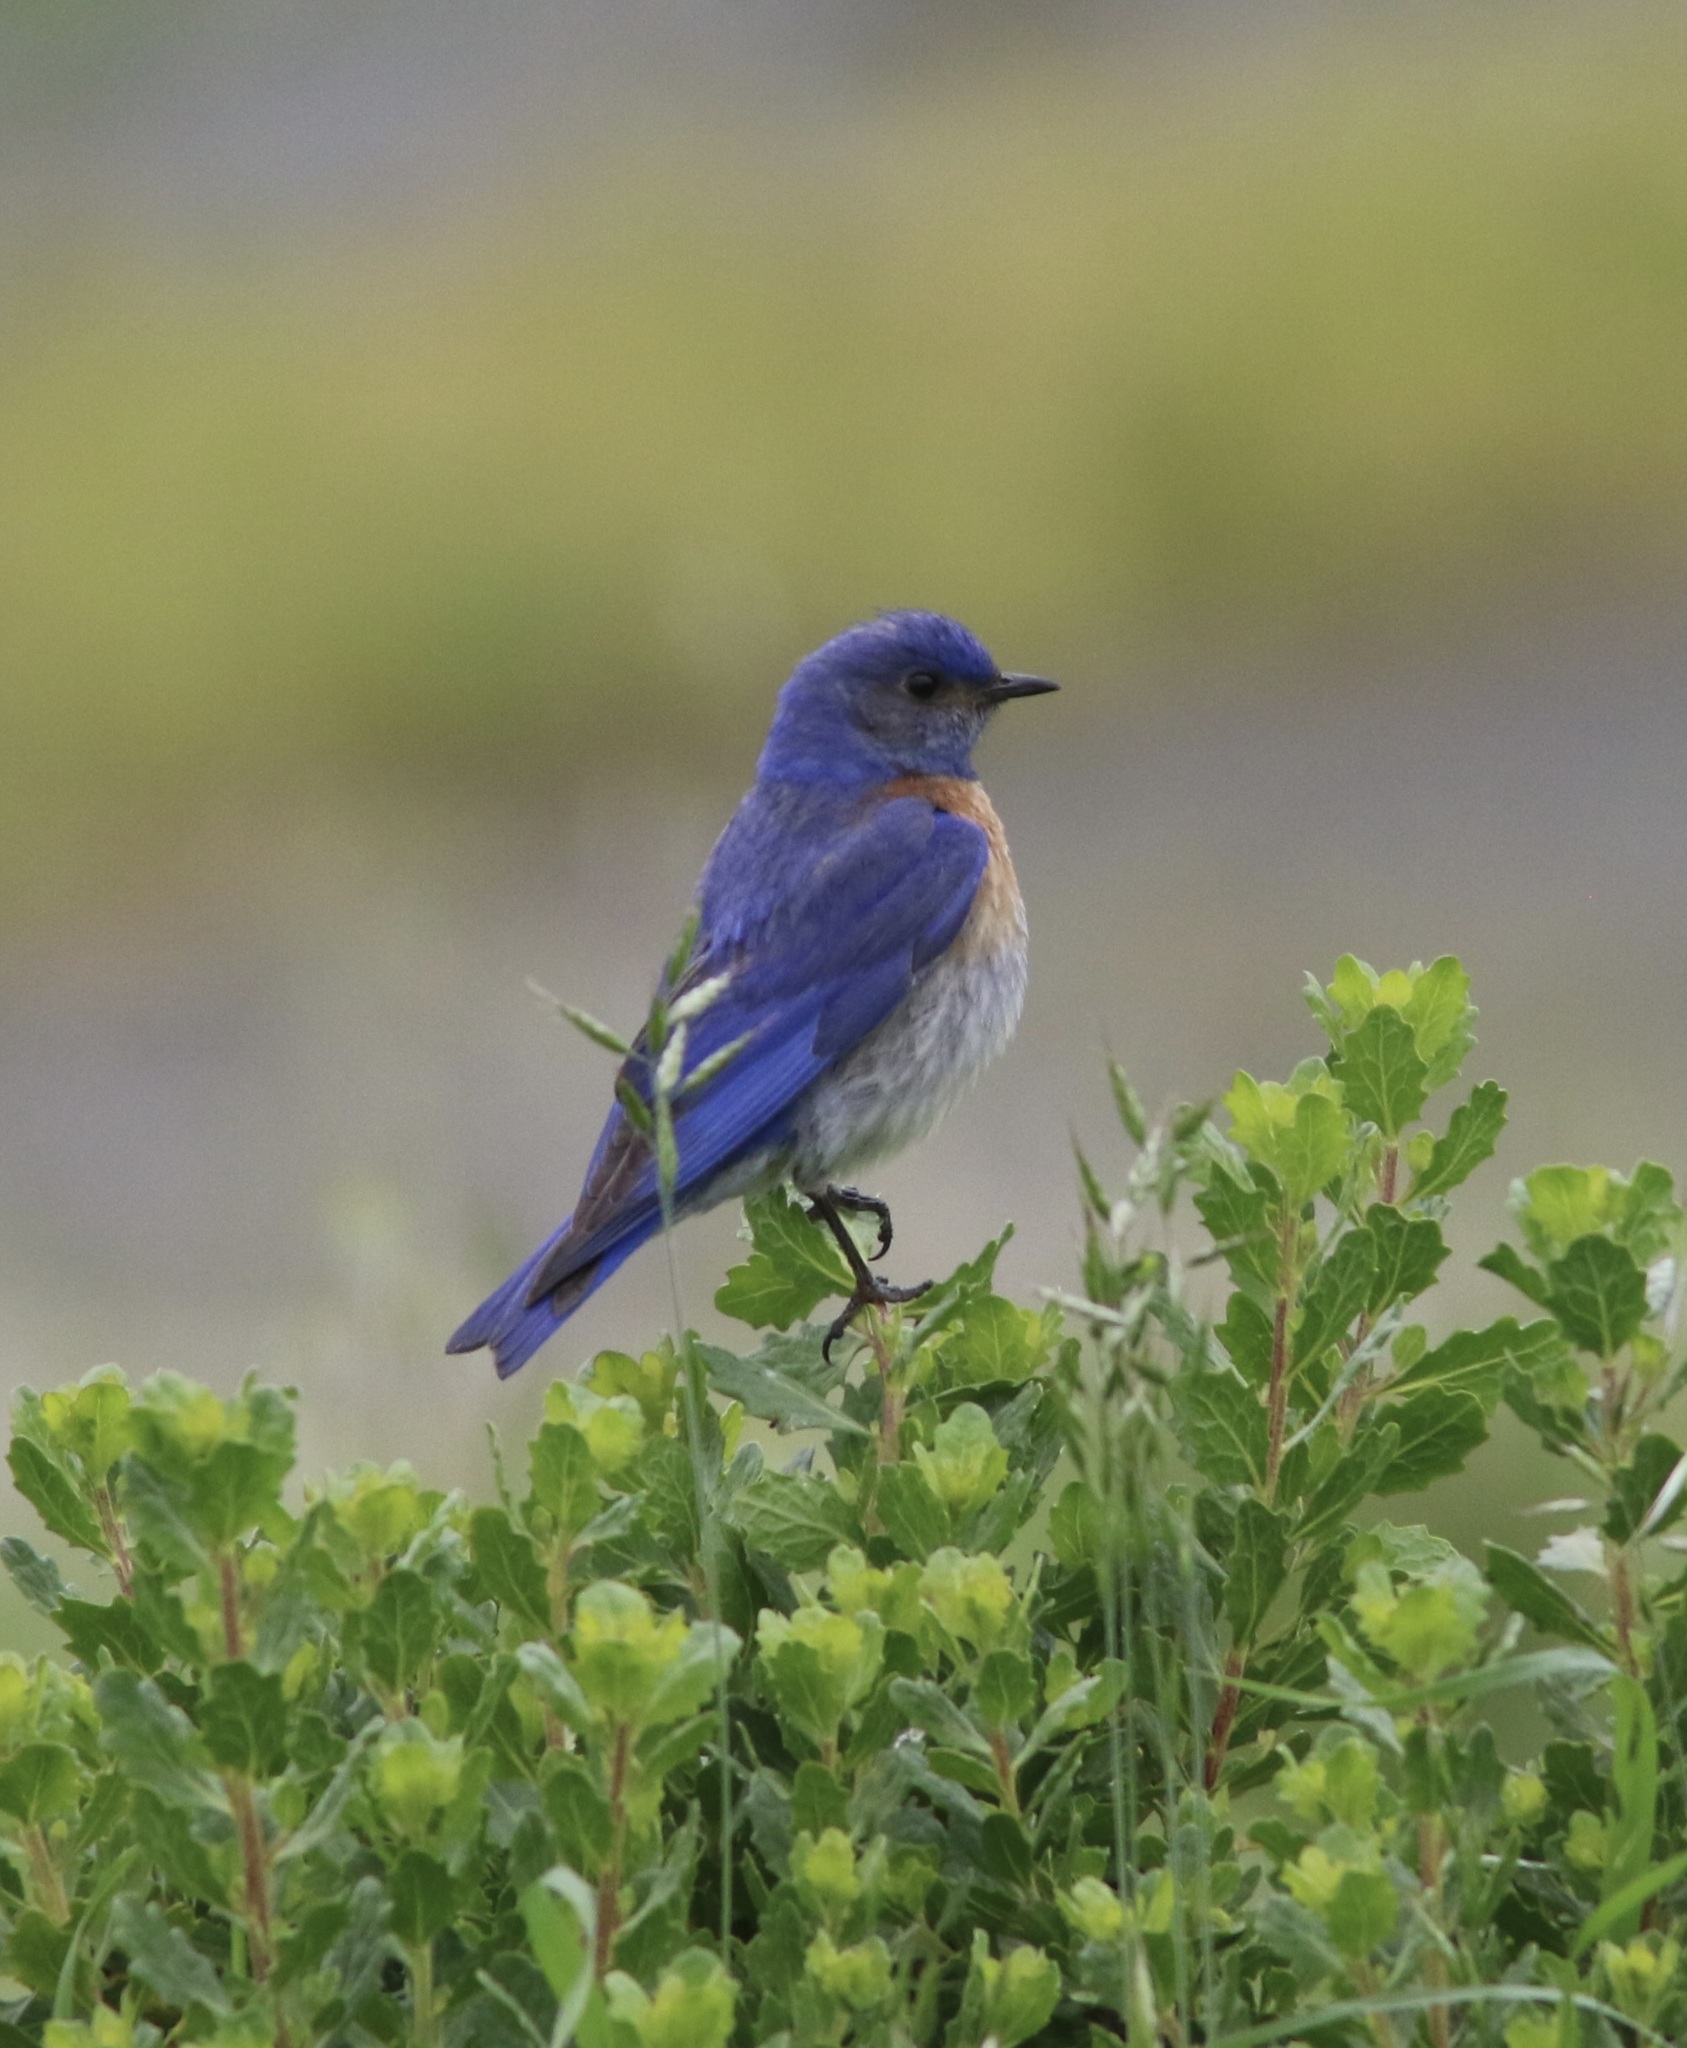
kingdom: Animalia
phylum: Chordata
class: Aves
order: Passeriformes
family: Turdidae
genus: Sialia
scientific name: Sialia mexicana
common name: Western bluebird
